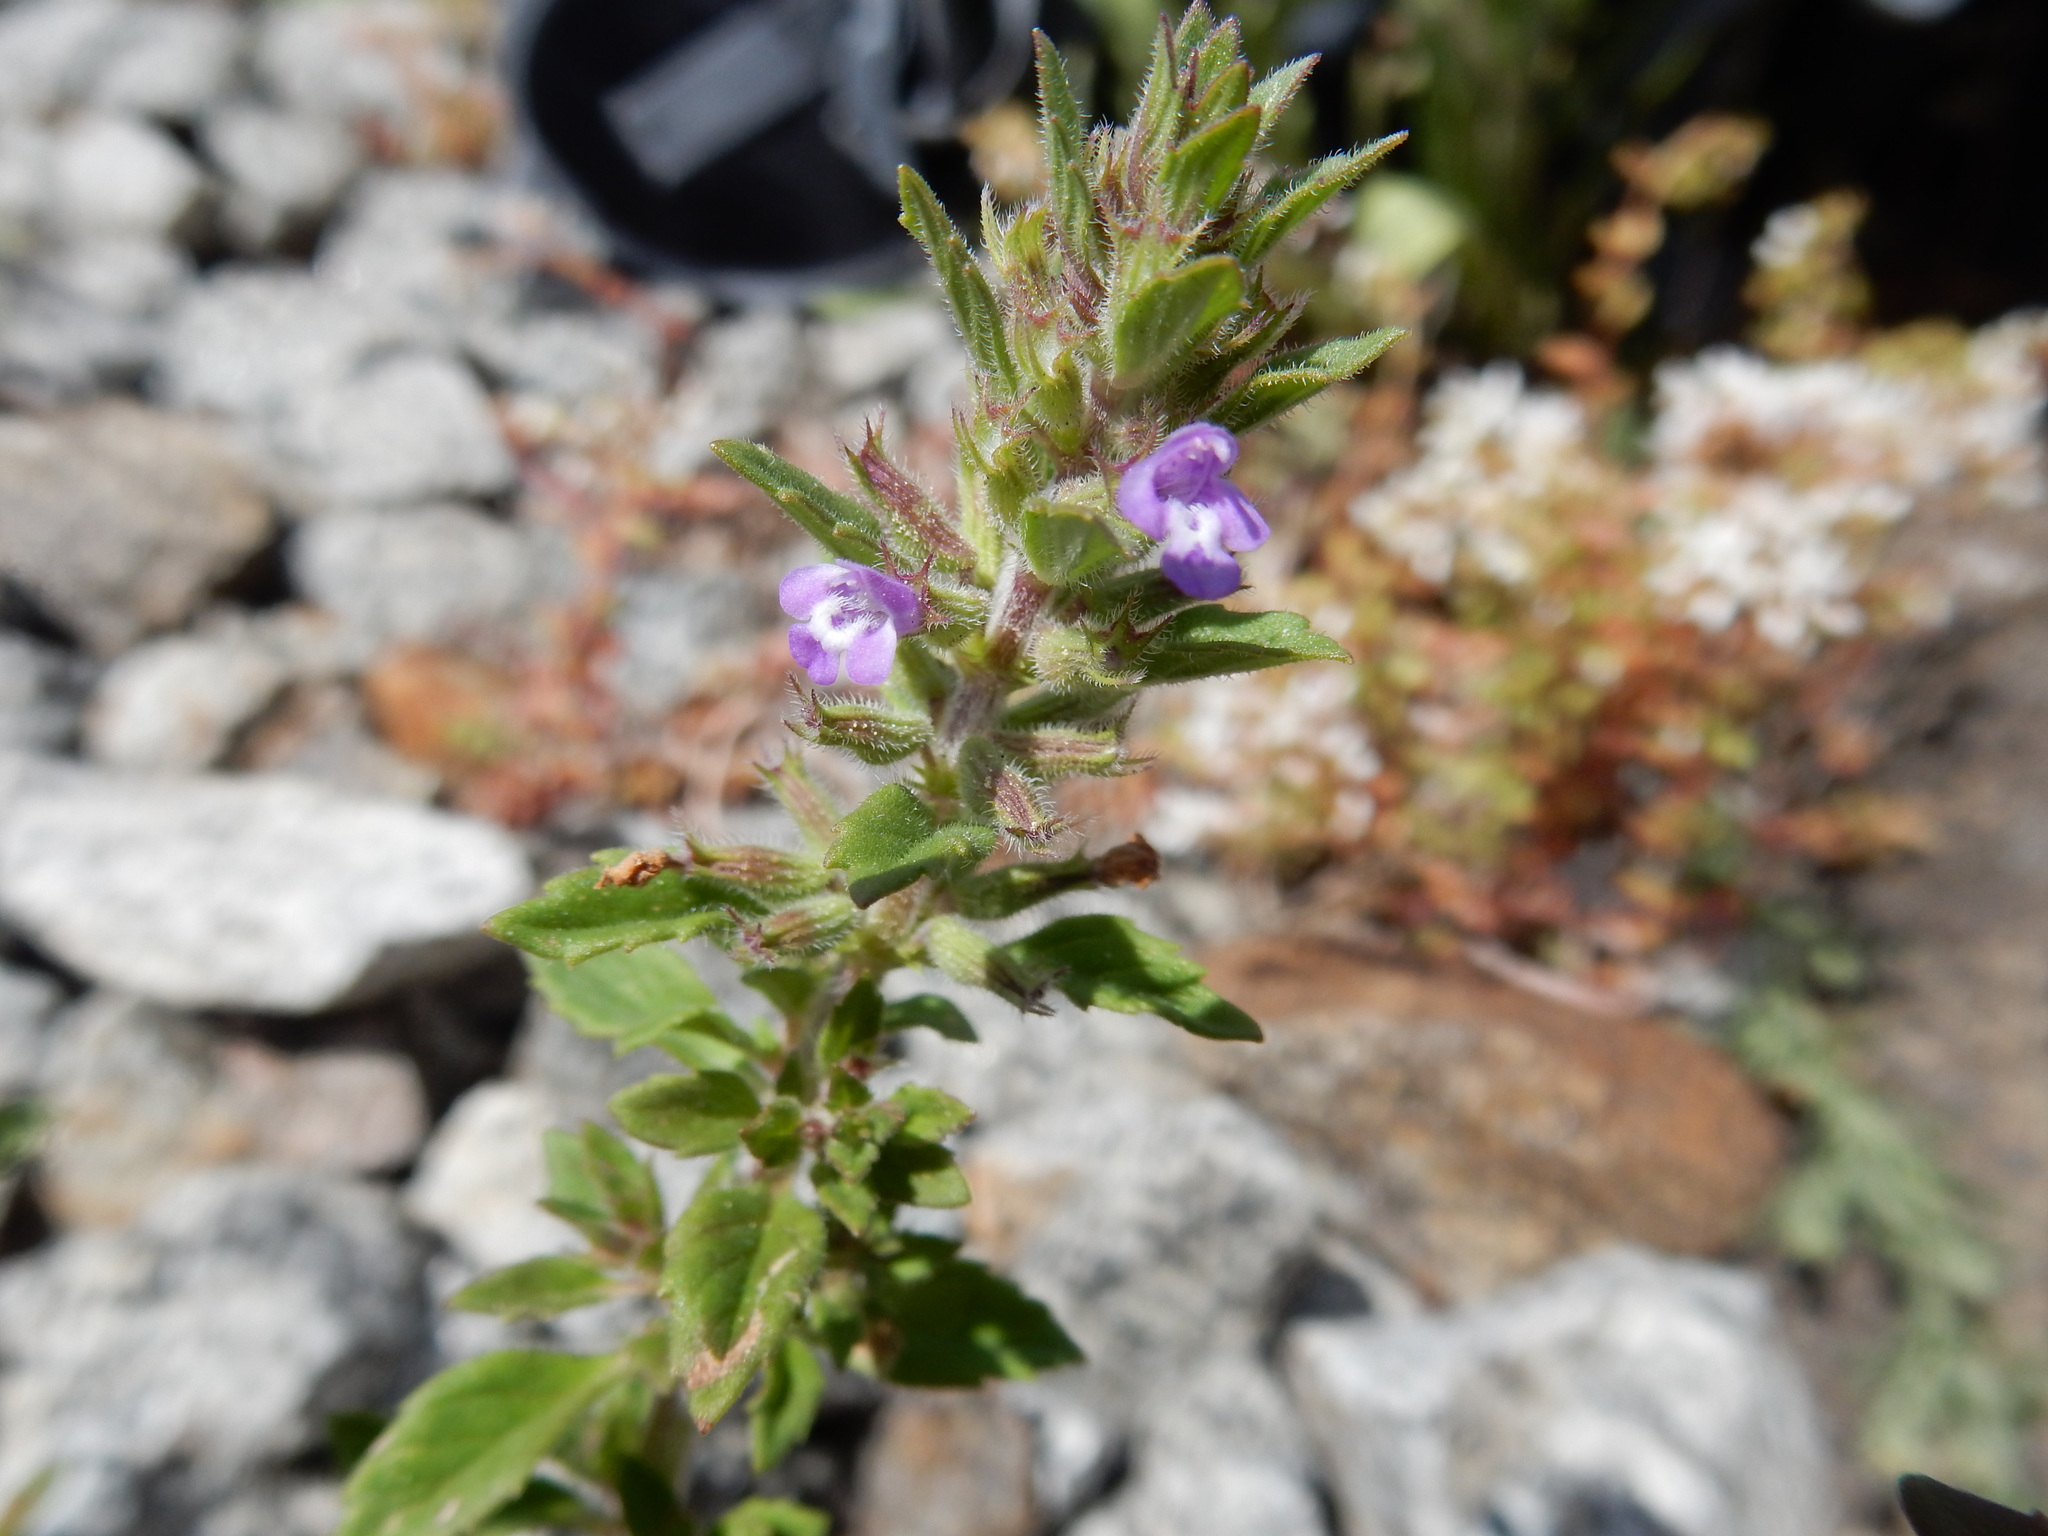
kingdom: Plantae
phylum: Tracheophyta
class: Magnoliopsida
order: Lamiales
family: Lamiaceae
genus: Clinopodium
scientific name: Clinopodium acinos
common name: Basil thyme
